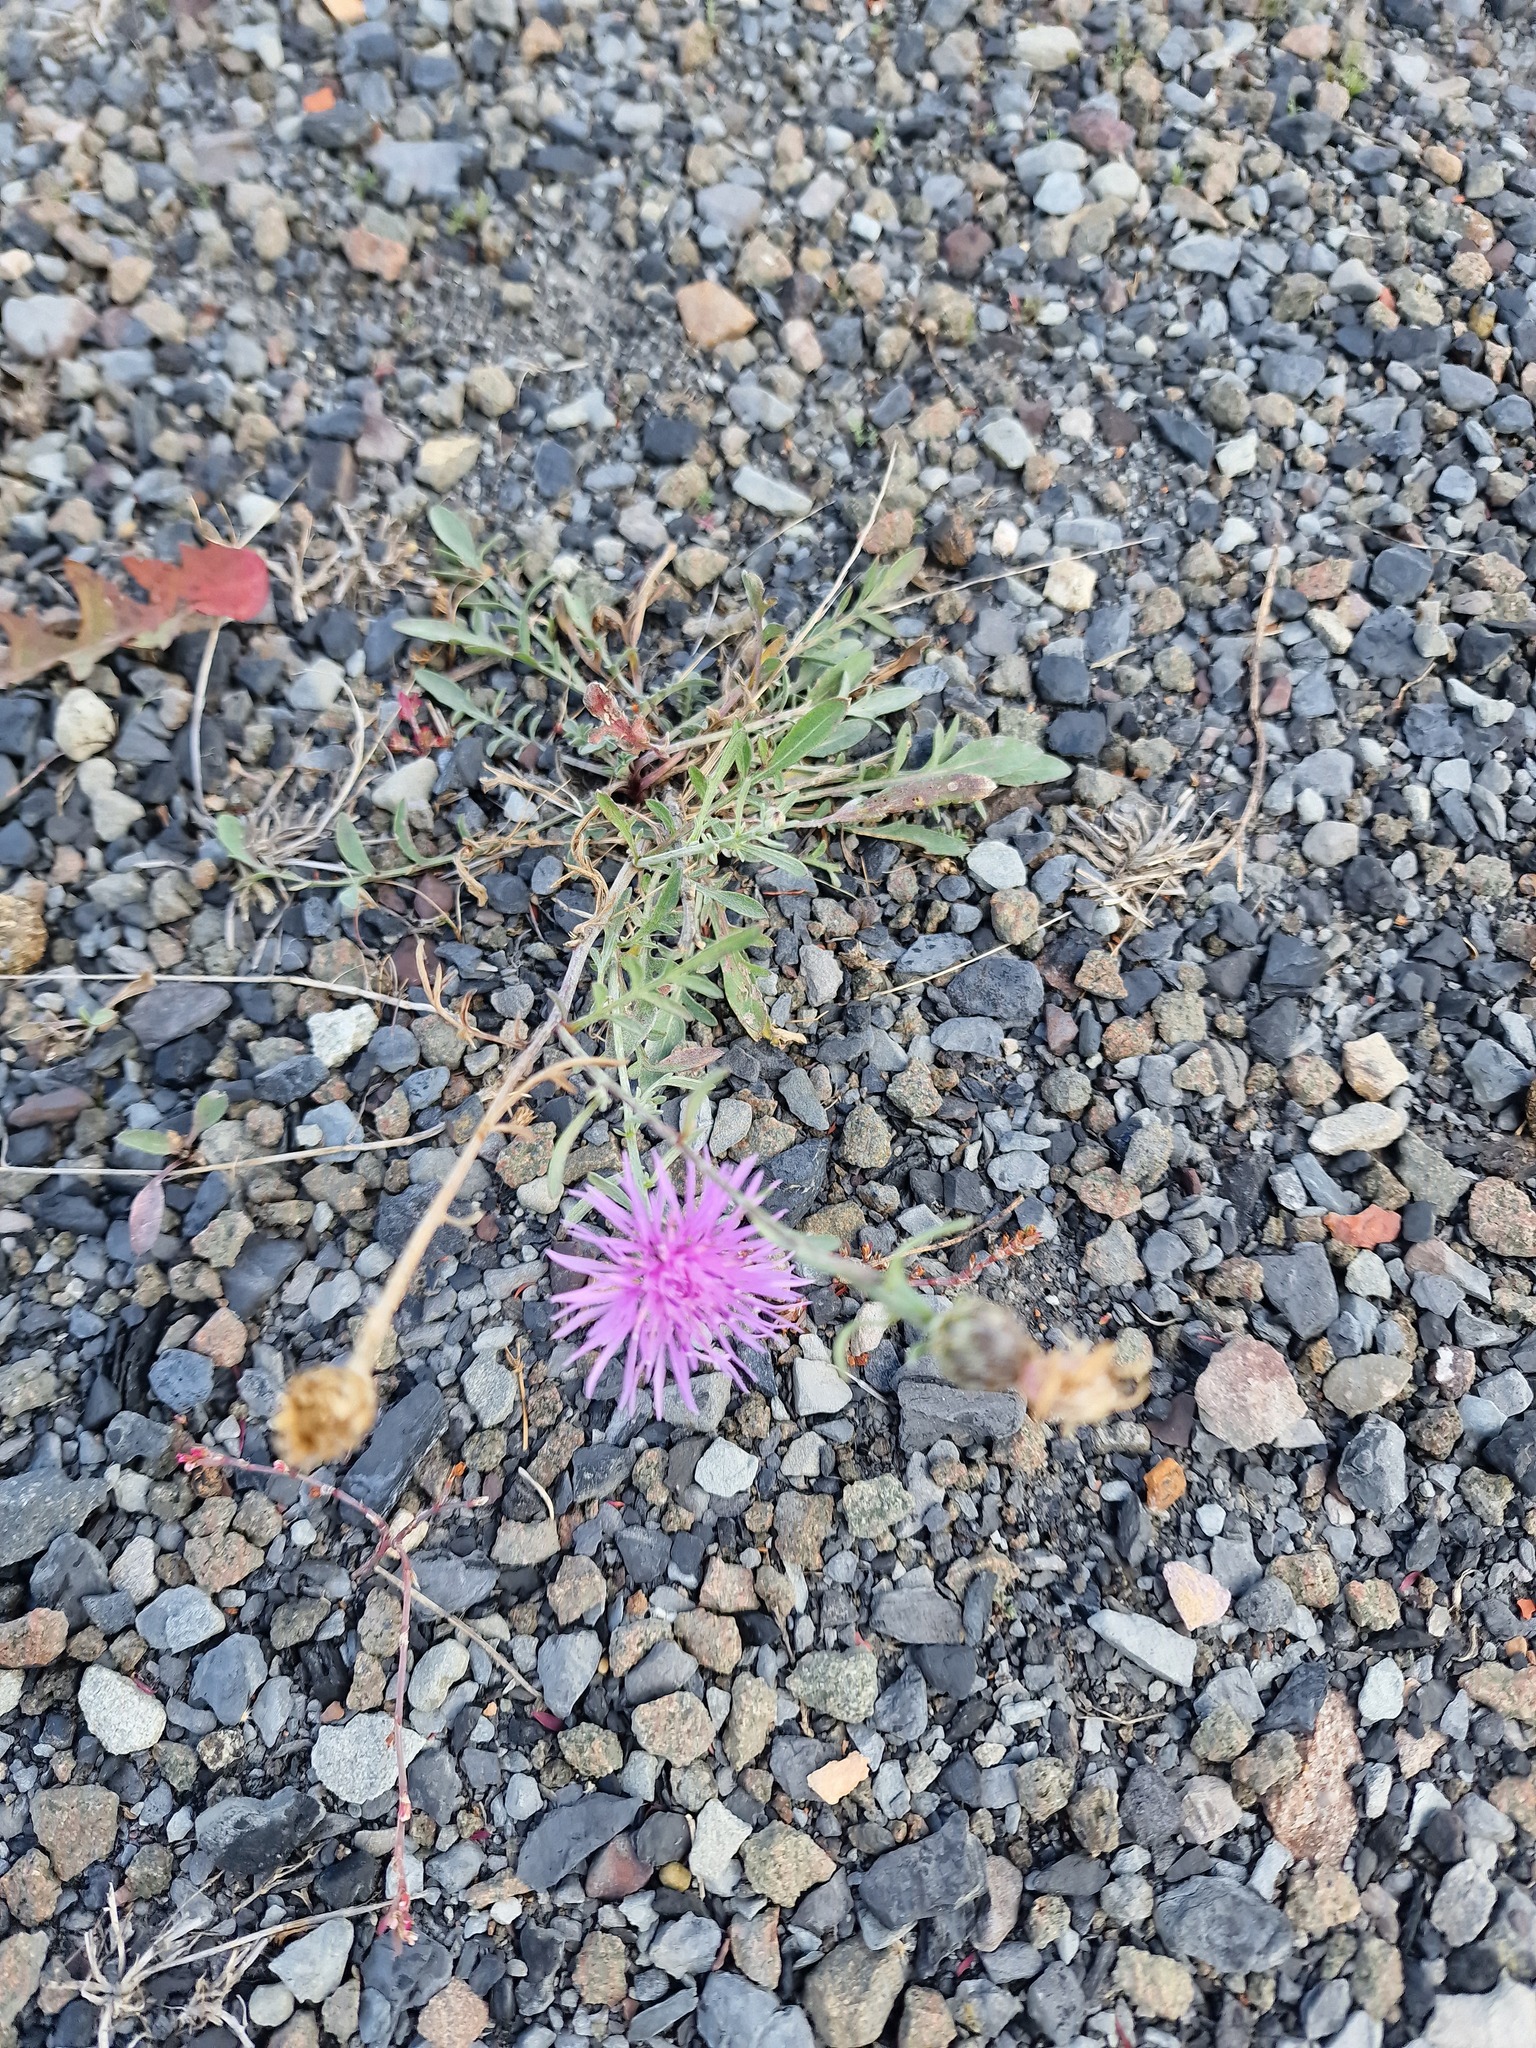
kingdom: Plantae
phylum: Tracheophyta
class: Magnoliopsida
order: Asterales
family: Asteraceae
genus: Centaurea
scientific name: Centaurea stoebe
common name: Spotted knapweed
